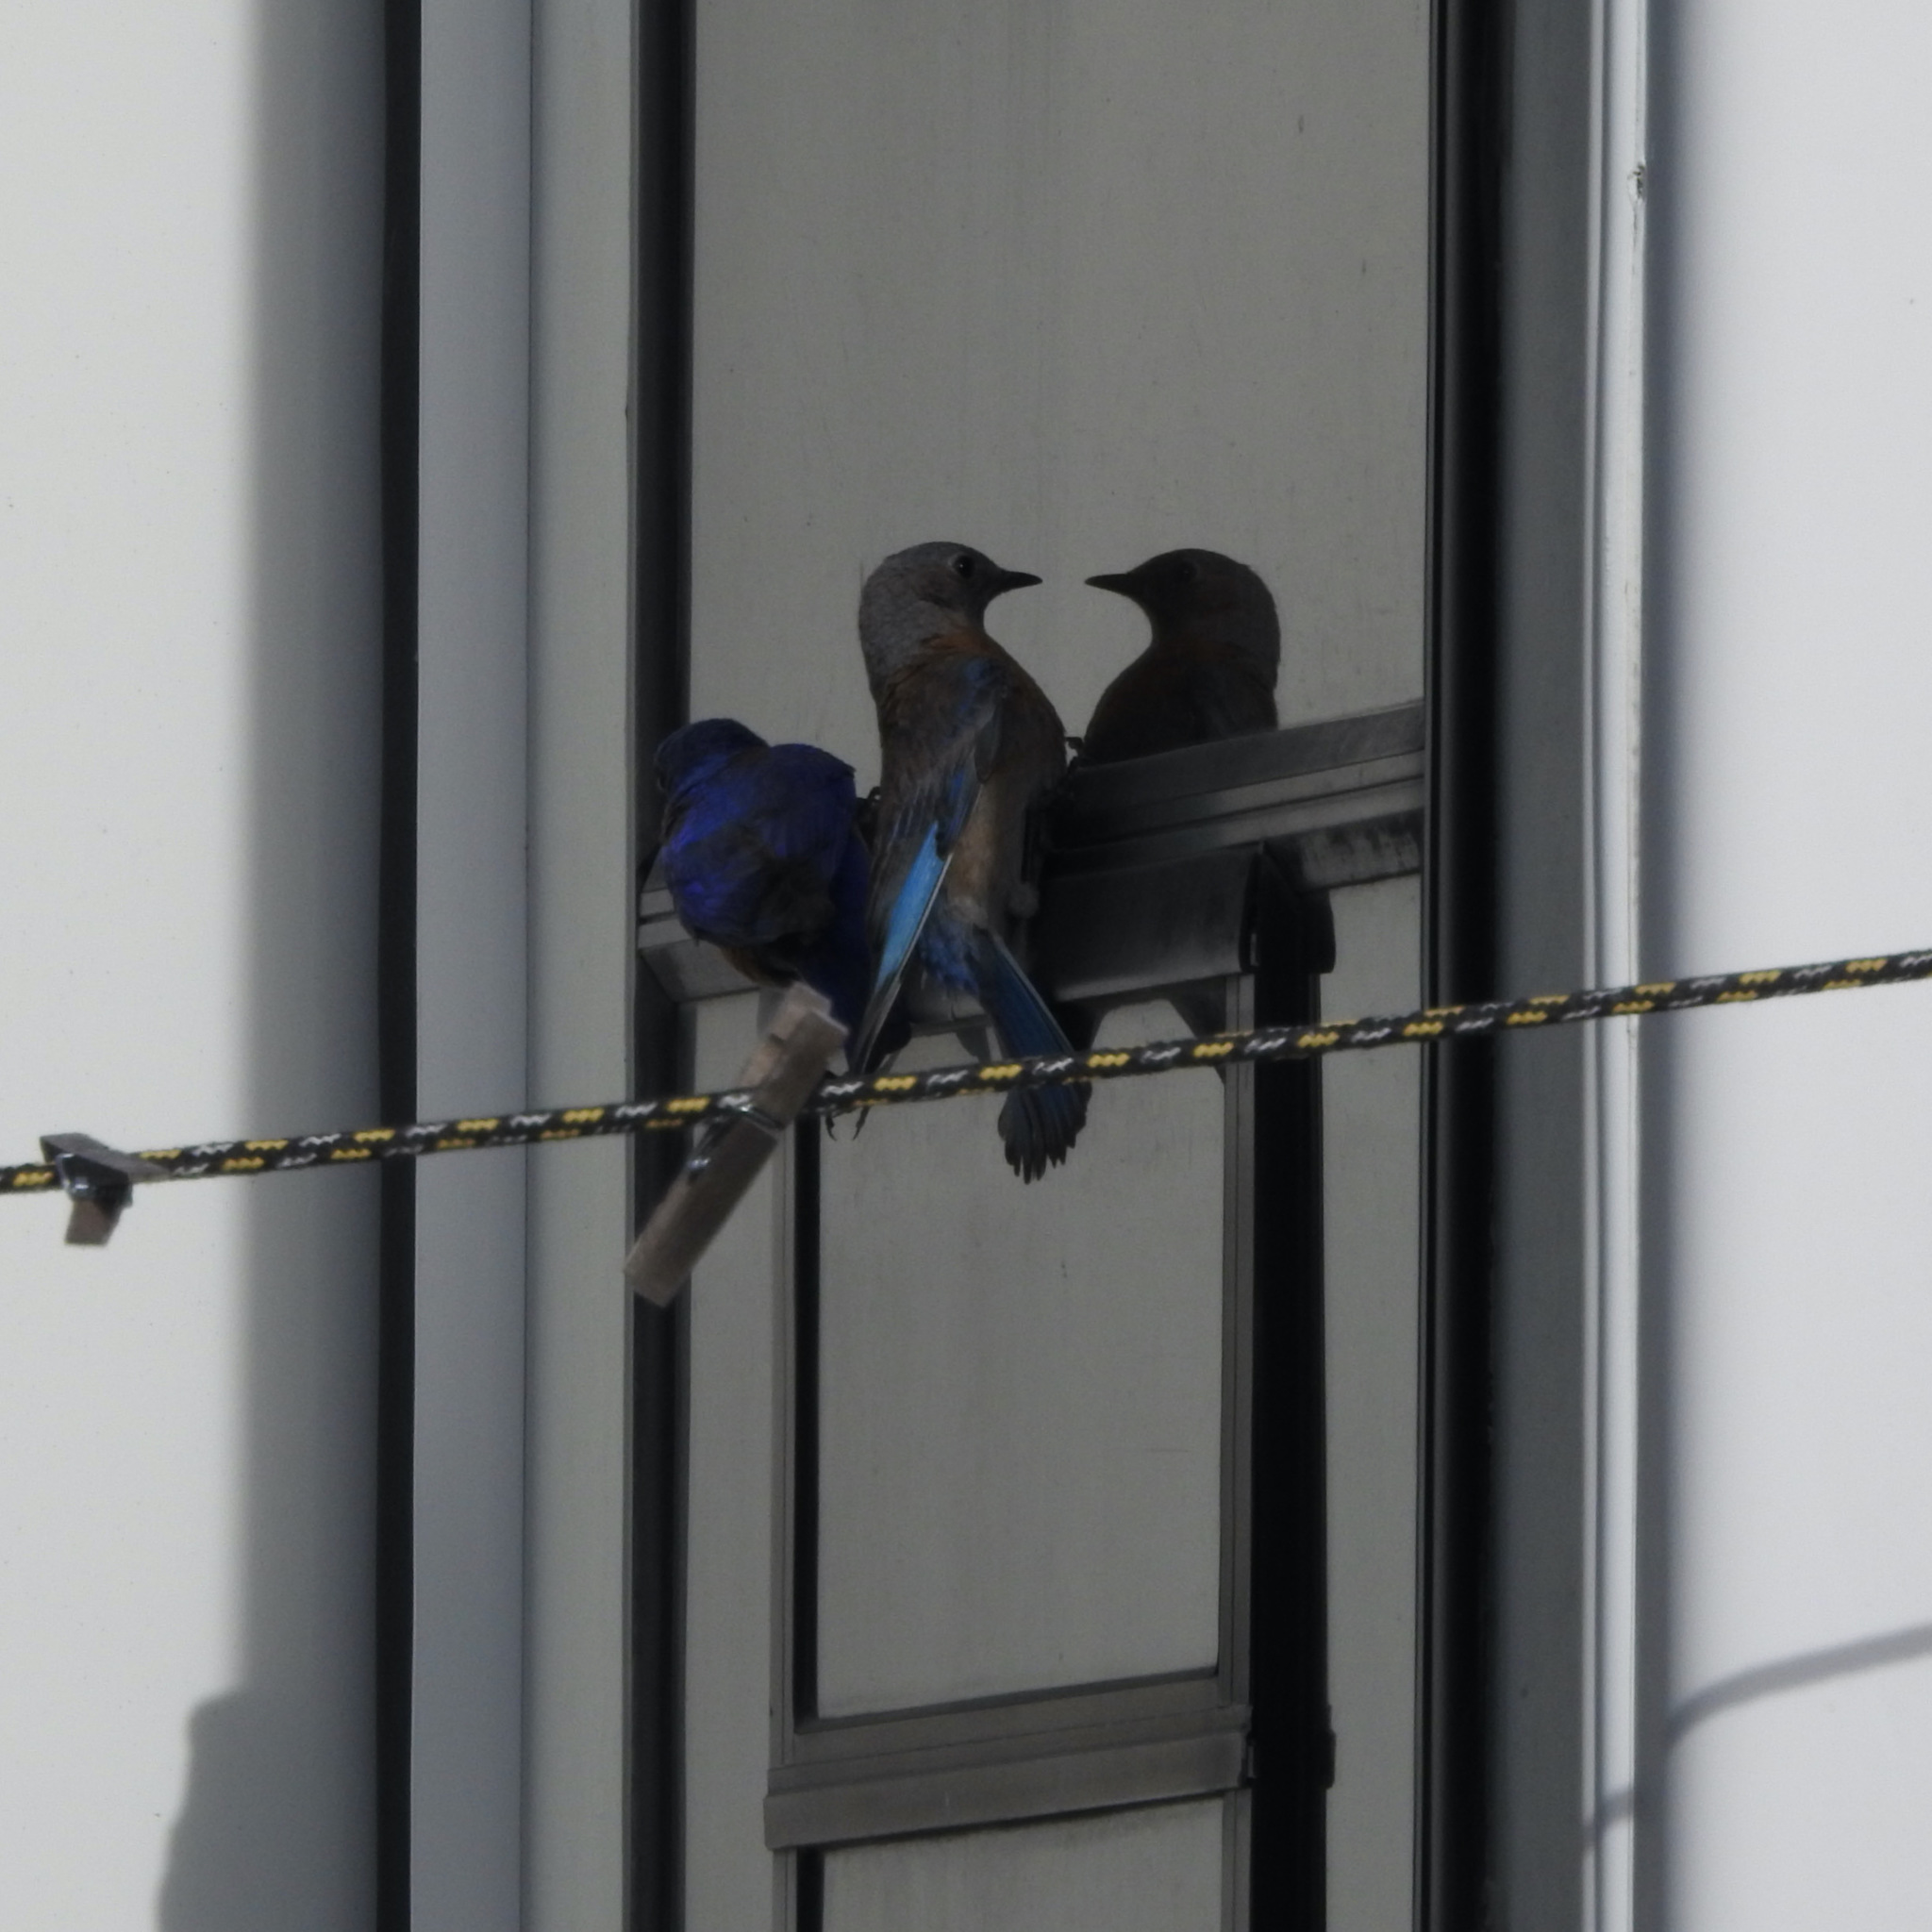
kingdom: Animalia
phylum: Chordata
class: Aves
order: Passeriformes
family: Turdidae
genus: Sialia
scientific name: Sialia mexicana
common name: Western bluebird
